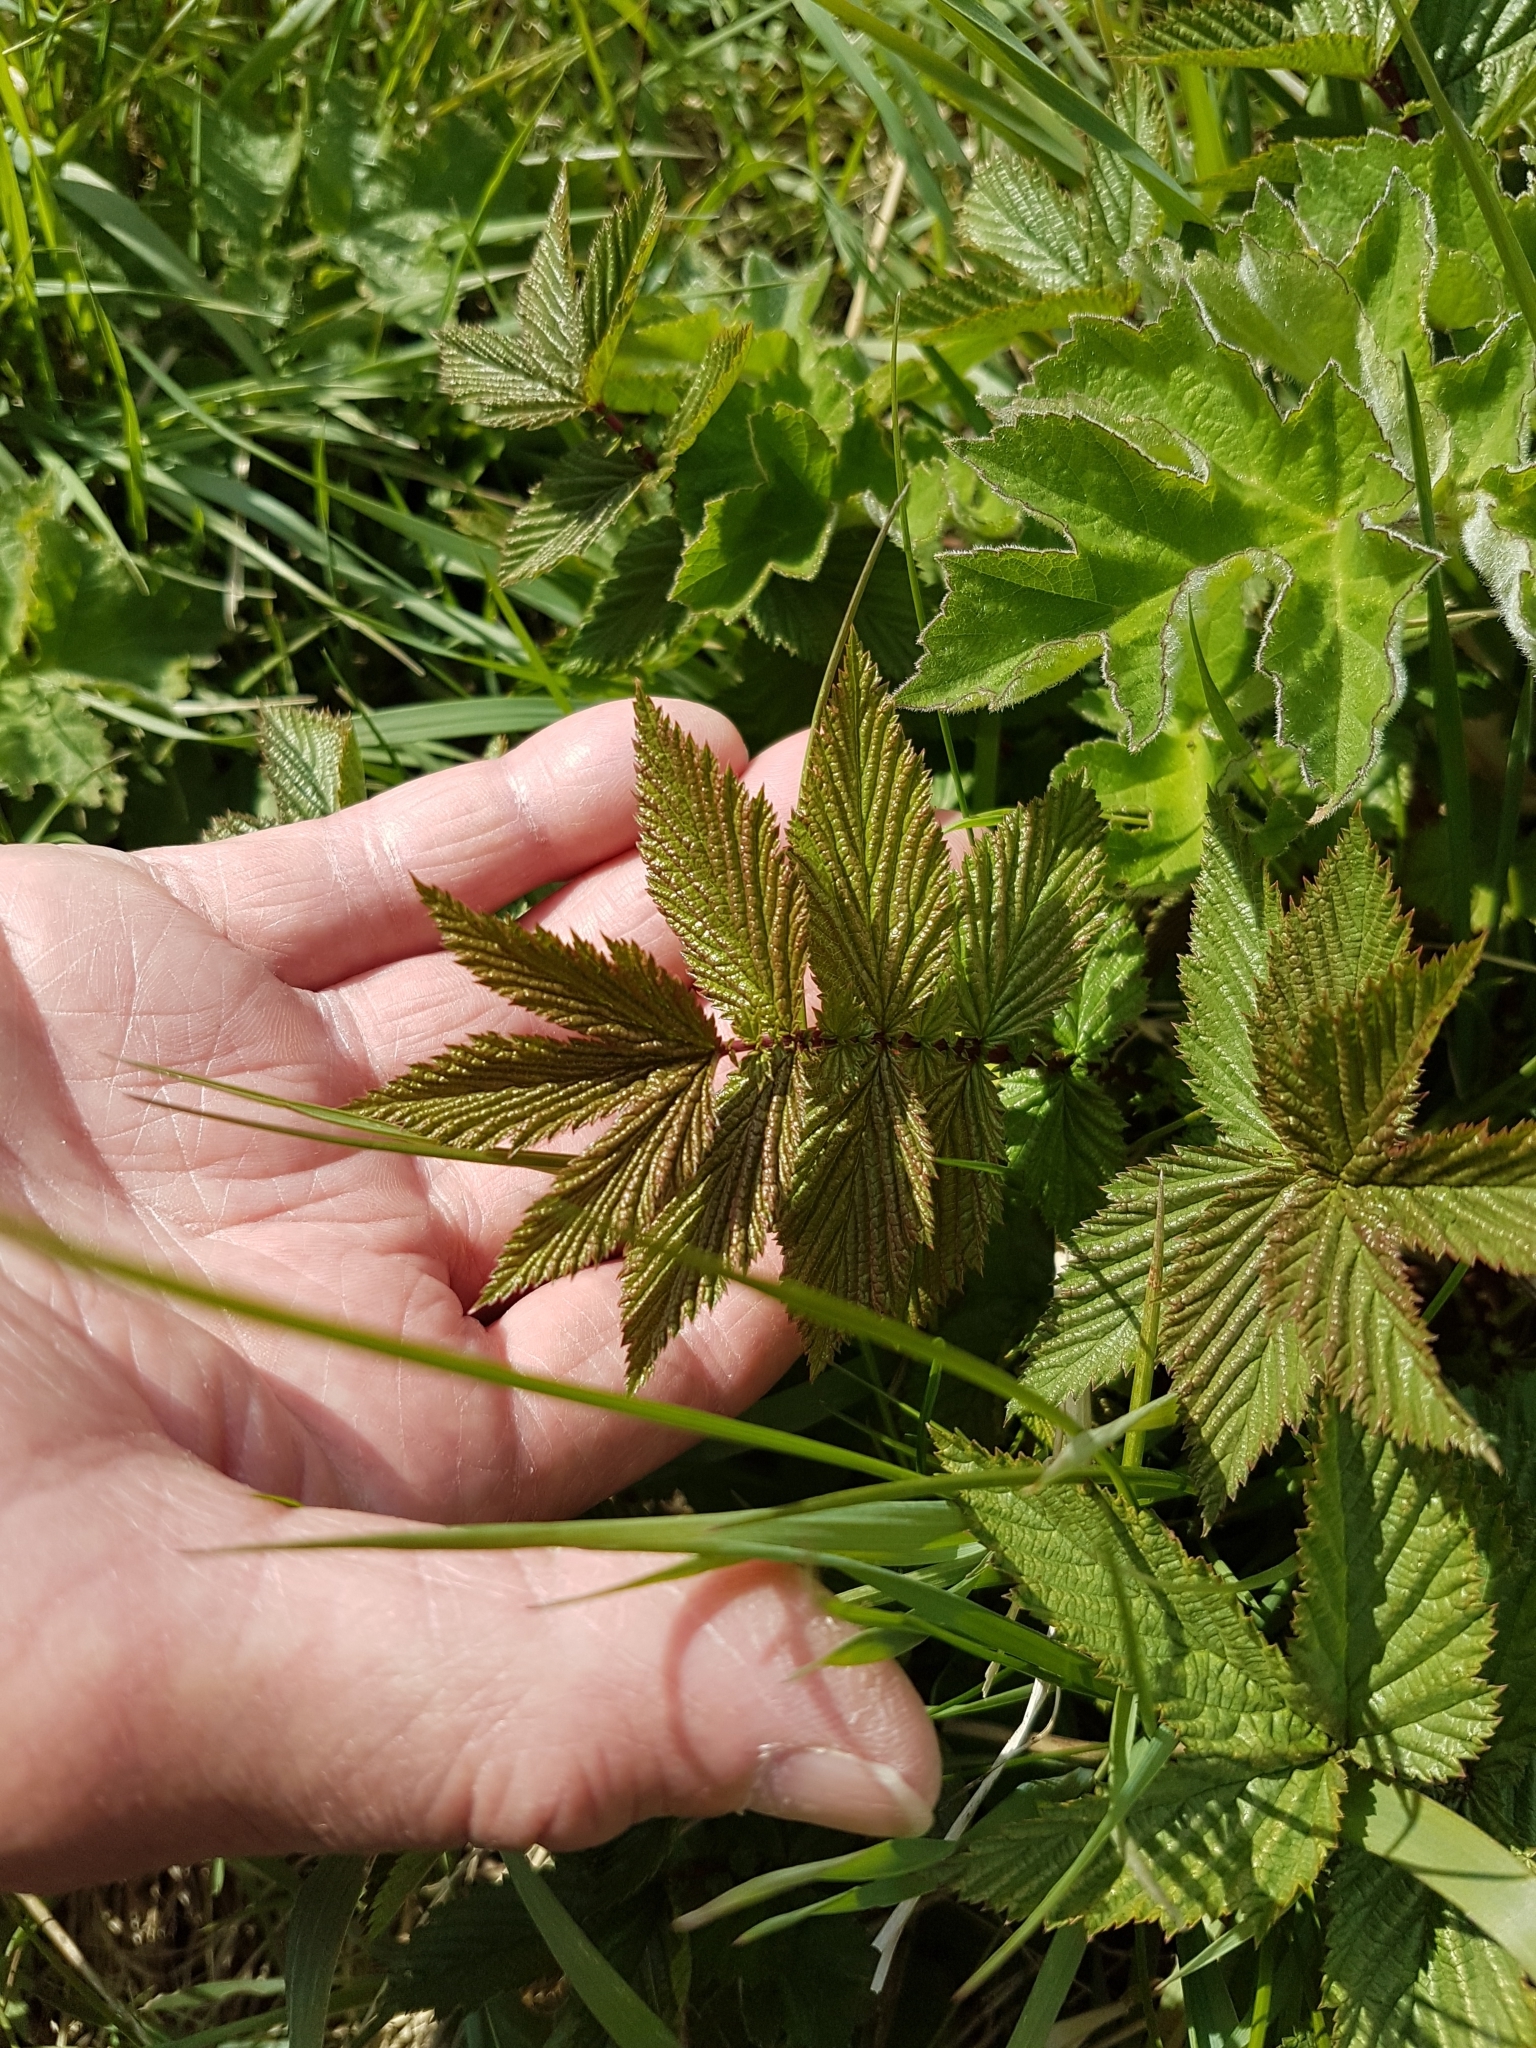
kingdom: Plantae
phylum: Tracheophyta
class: Magnoliopsida
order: Rosales
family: Rosaceae
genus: Filipendula
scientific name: Filipendula ulmaria
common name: Meadowsweet
